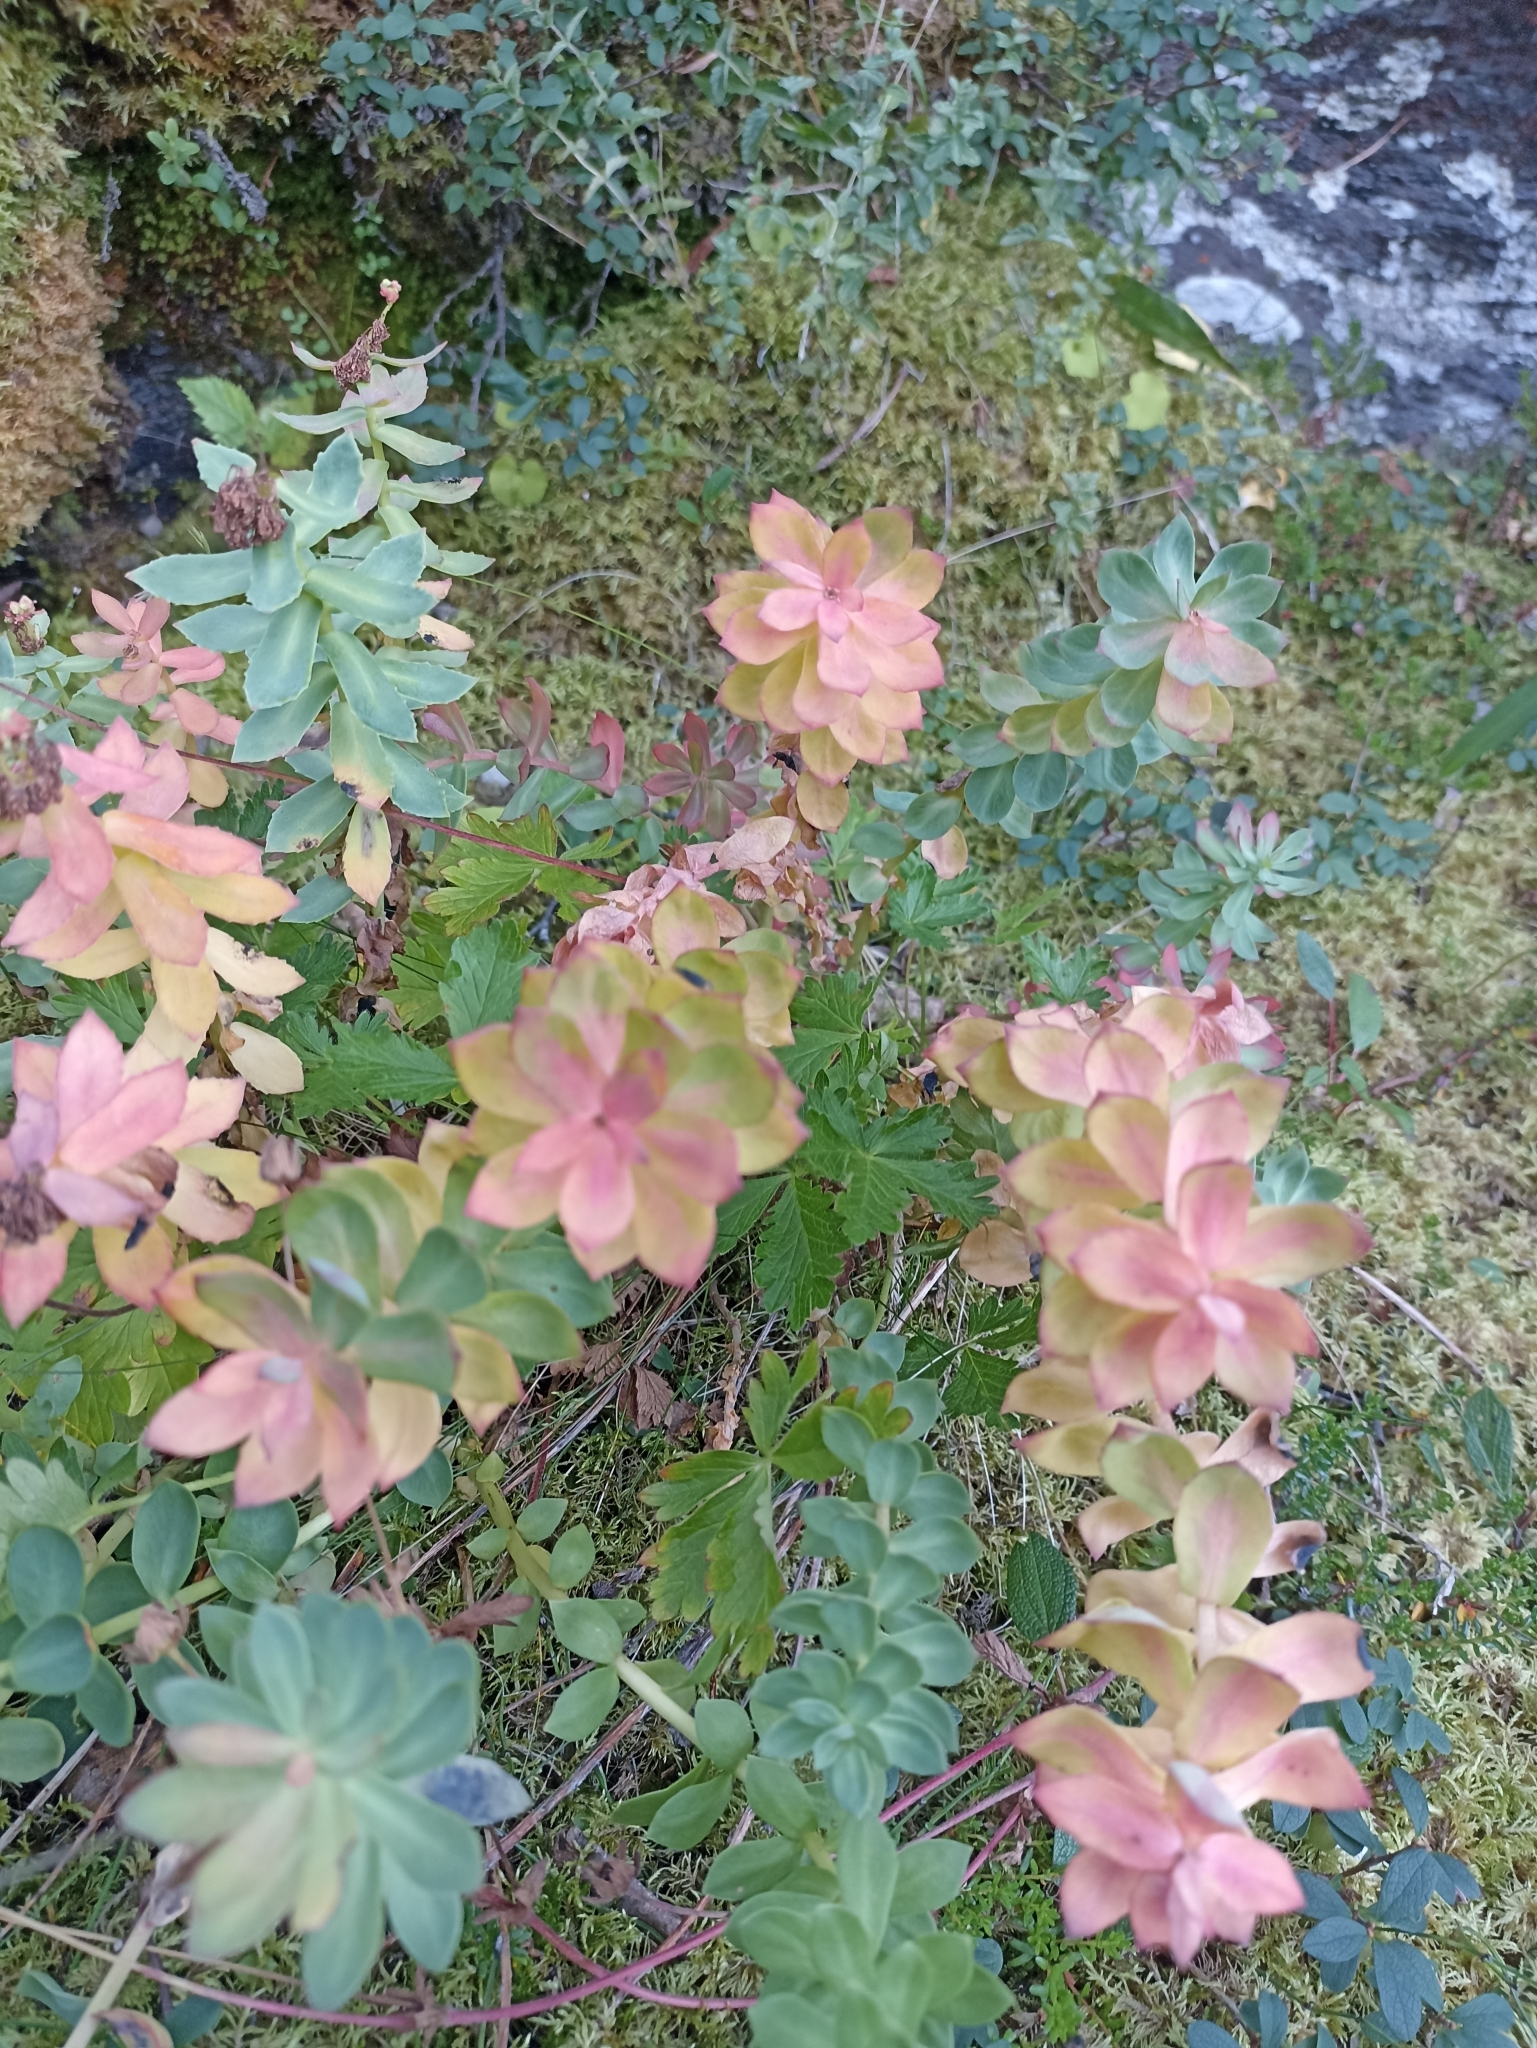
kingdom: Plantae
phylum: Tracheophyta
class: Magnoliopsida
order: Saxifragales
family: Crassulaceae
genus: Rhodiola
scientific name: Rhodiola rosea
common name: Roseroot
